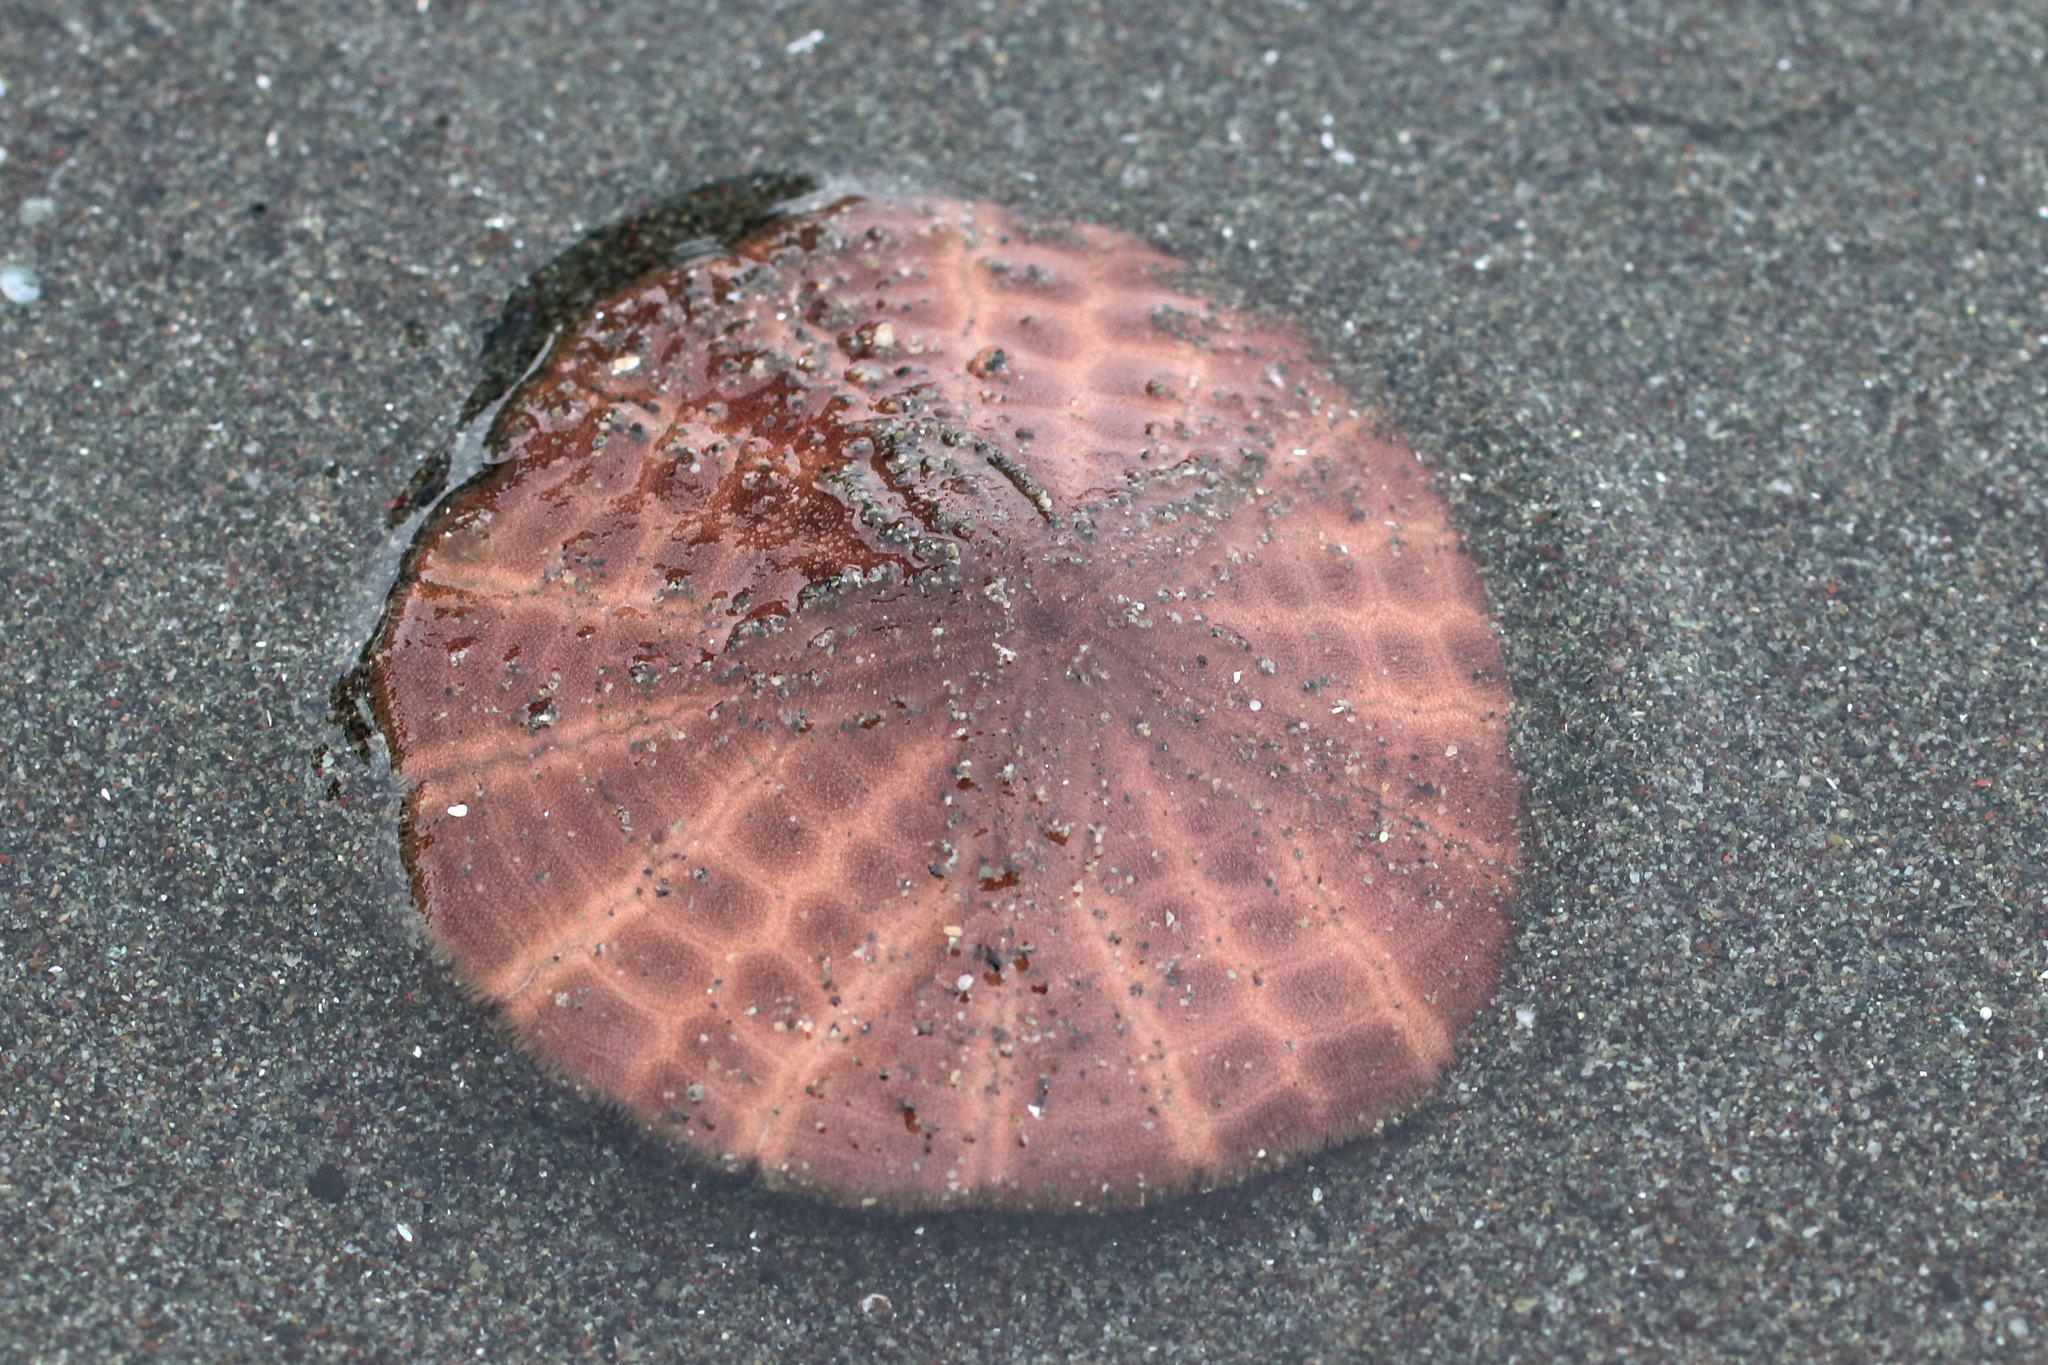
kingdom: Animalia
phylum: Echinodermata
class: Echinoidea
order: Echinolampadacea
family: Echinarachniidae
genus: Echinarachnius
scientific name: Echinarachnius parma
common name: Common sand dollar
